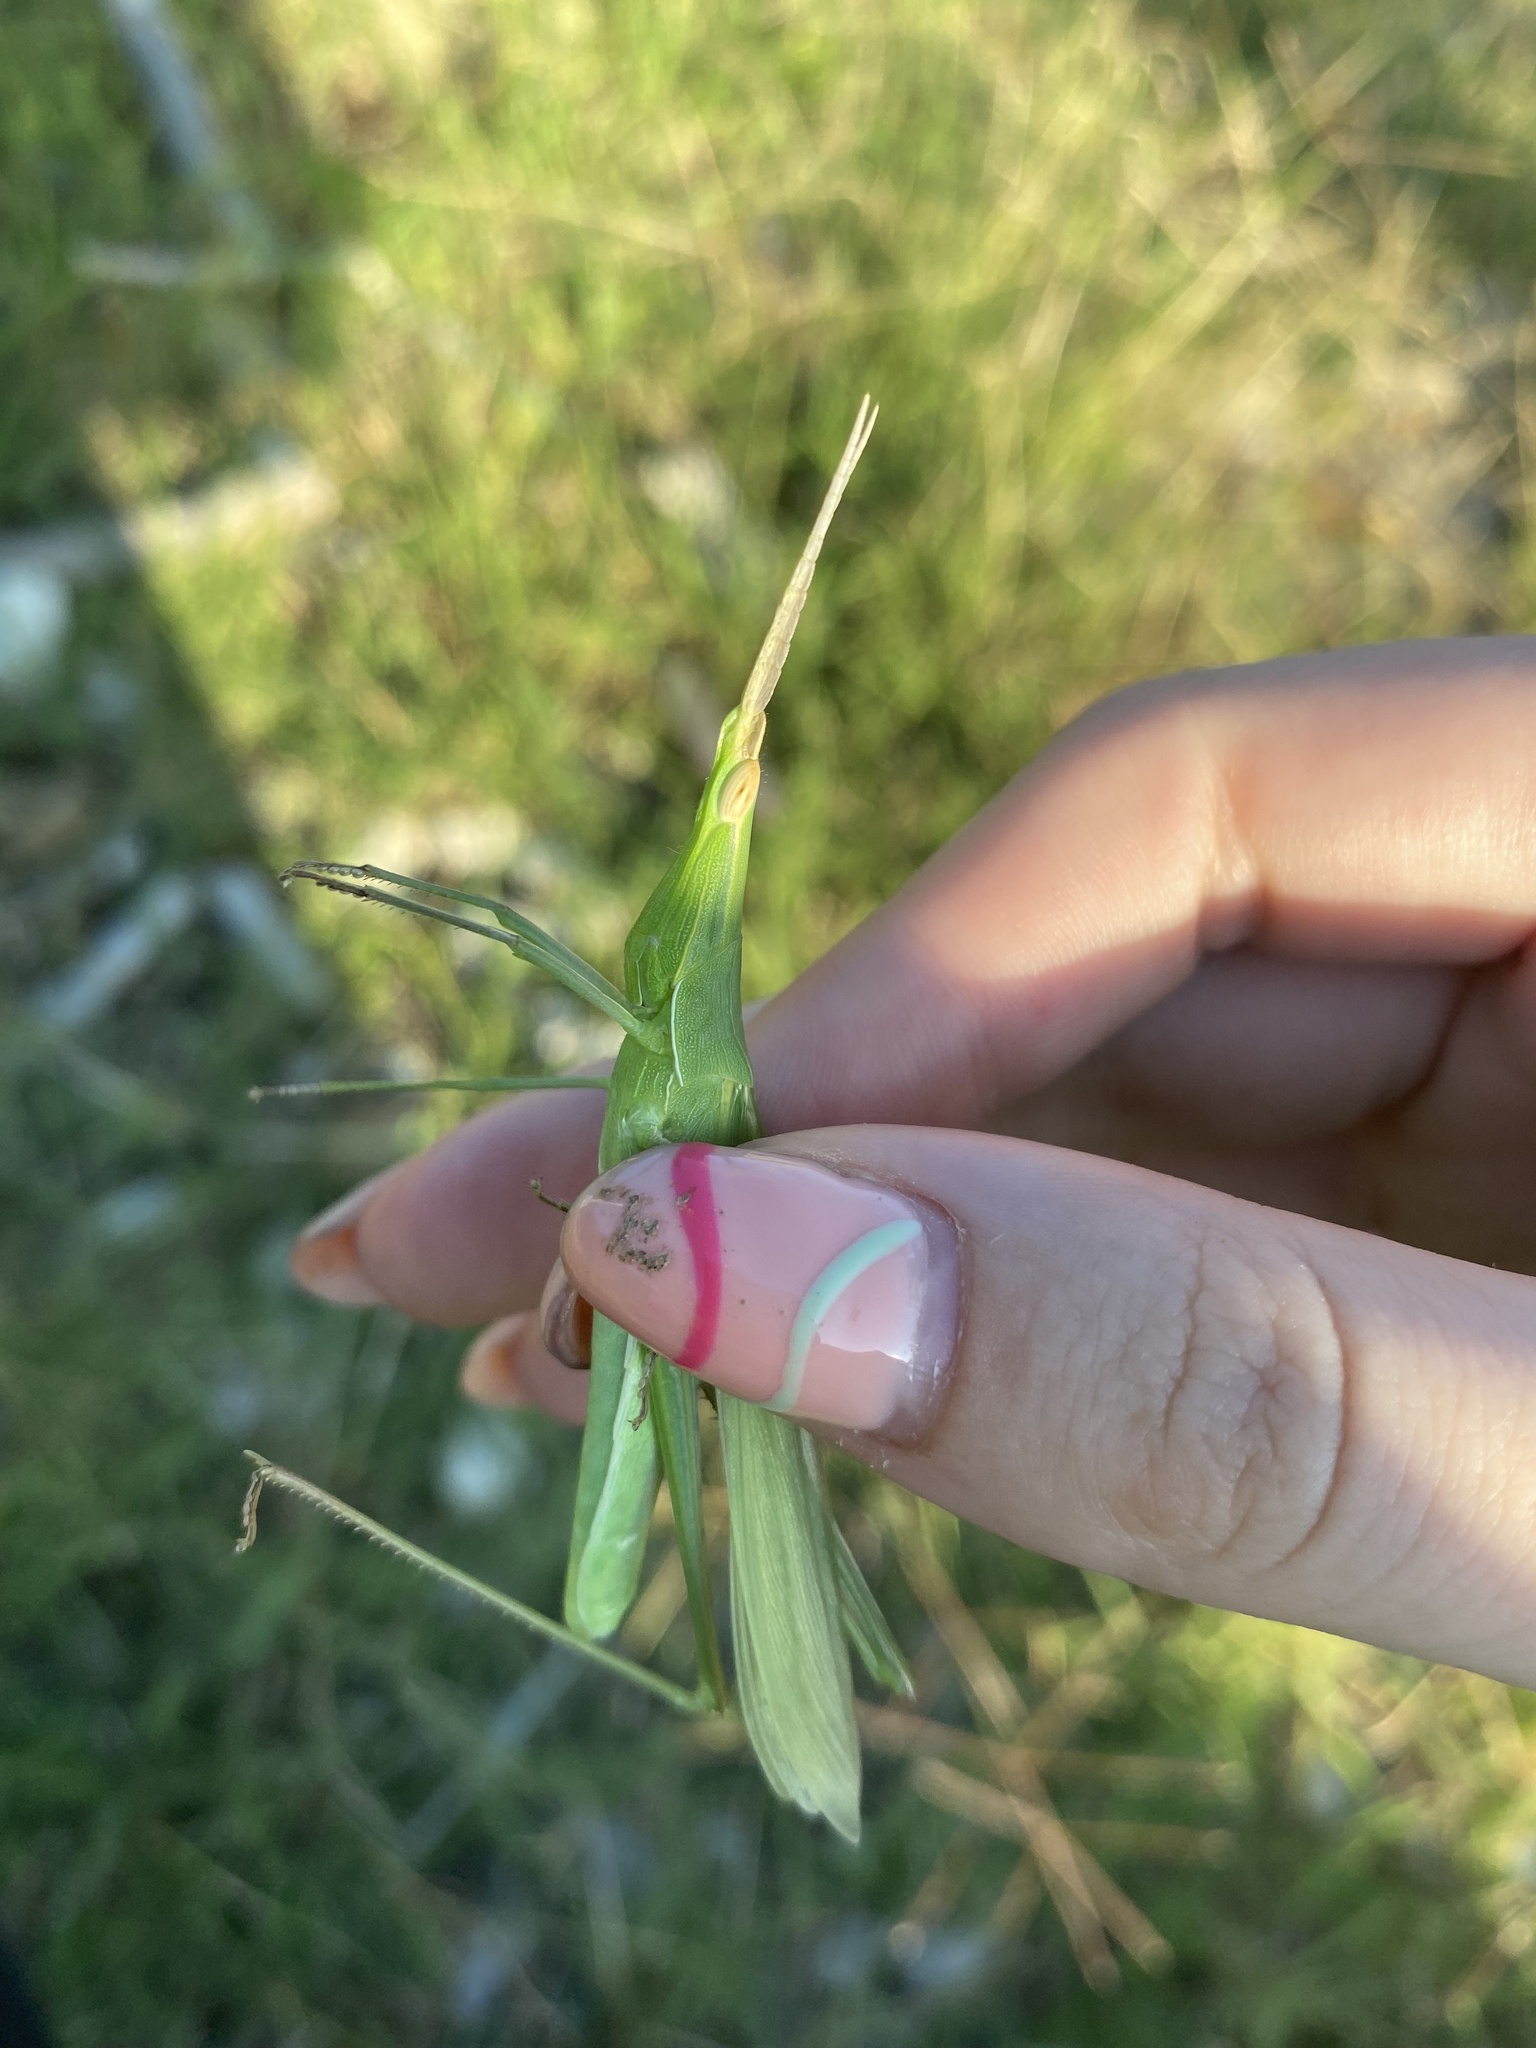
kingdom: Animalia
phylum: Arthropoda
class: Insecta
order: Orthoptera
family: Acrididae
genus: Acrida
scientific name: Acrida ungarica
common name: Common cone-headed grasshopper
